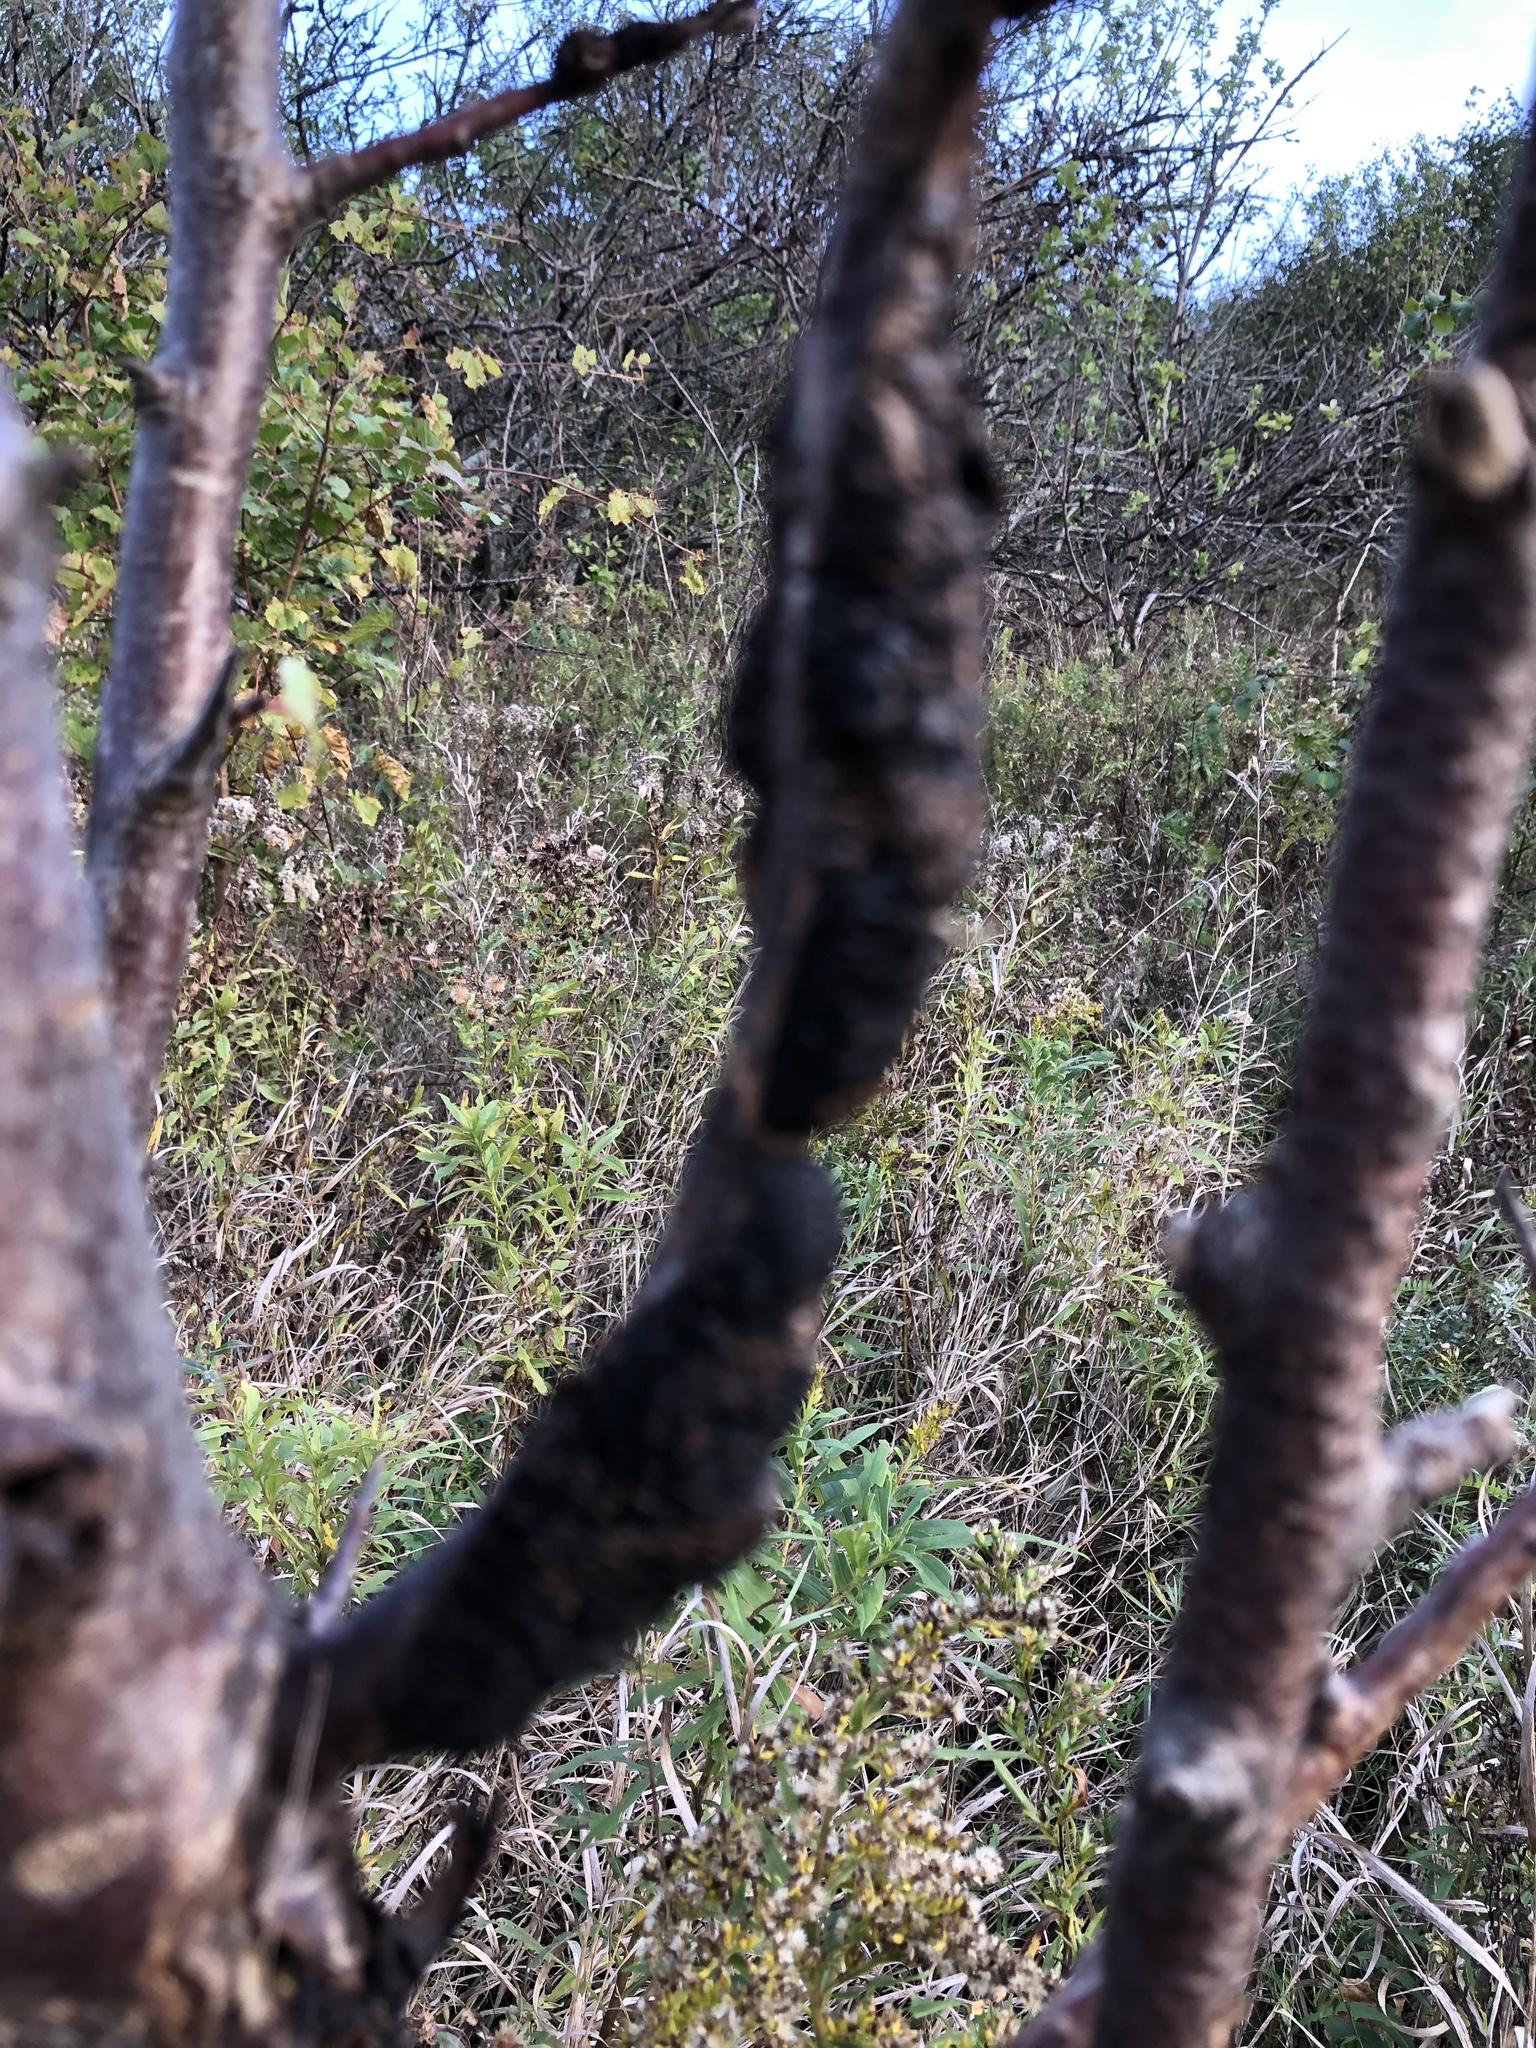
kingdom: Fungi
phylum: Ascomycota
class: Dothideomycetes
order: Venturiales
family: Venturiaceae
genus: Apiosporina
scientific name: Apiosporina morbosa
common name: Black knot
